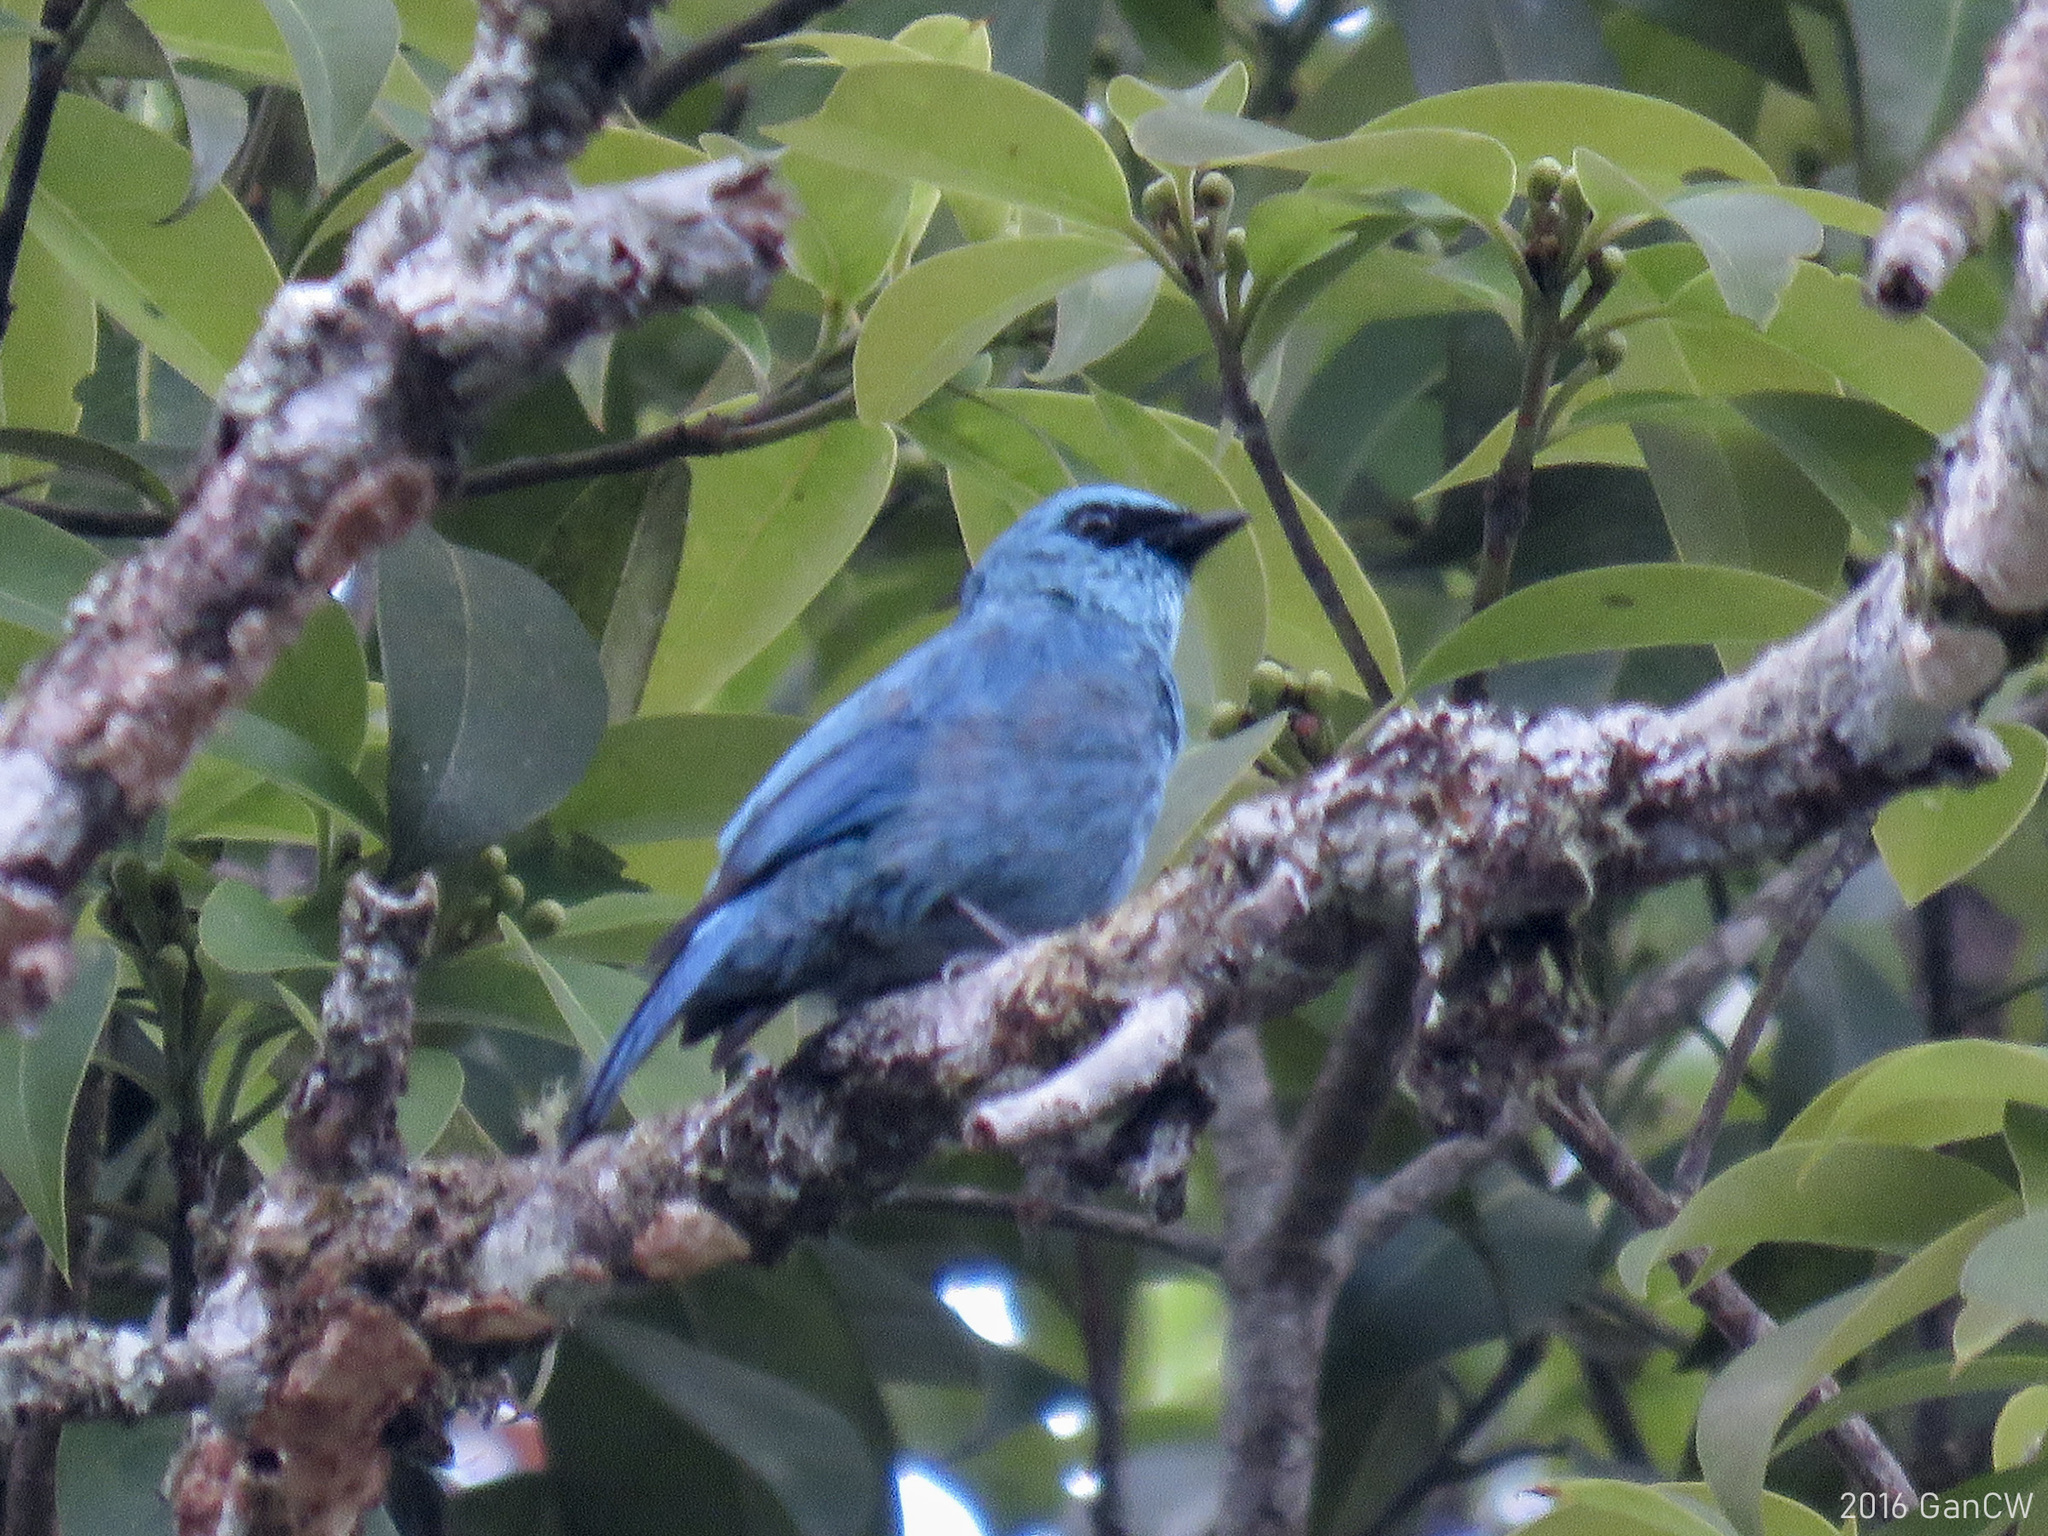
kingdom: Animalia
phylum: Chordata
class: Aves
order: Passeriformes
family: Muscicapidae
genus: Eumyias
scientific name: Eumyias thalassinus
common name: Verditer flycatcher
